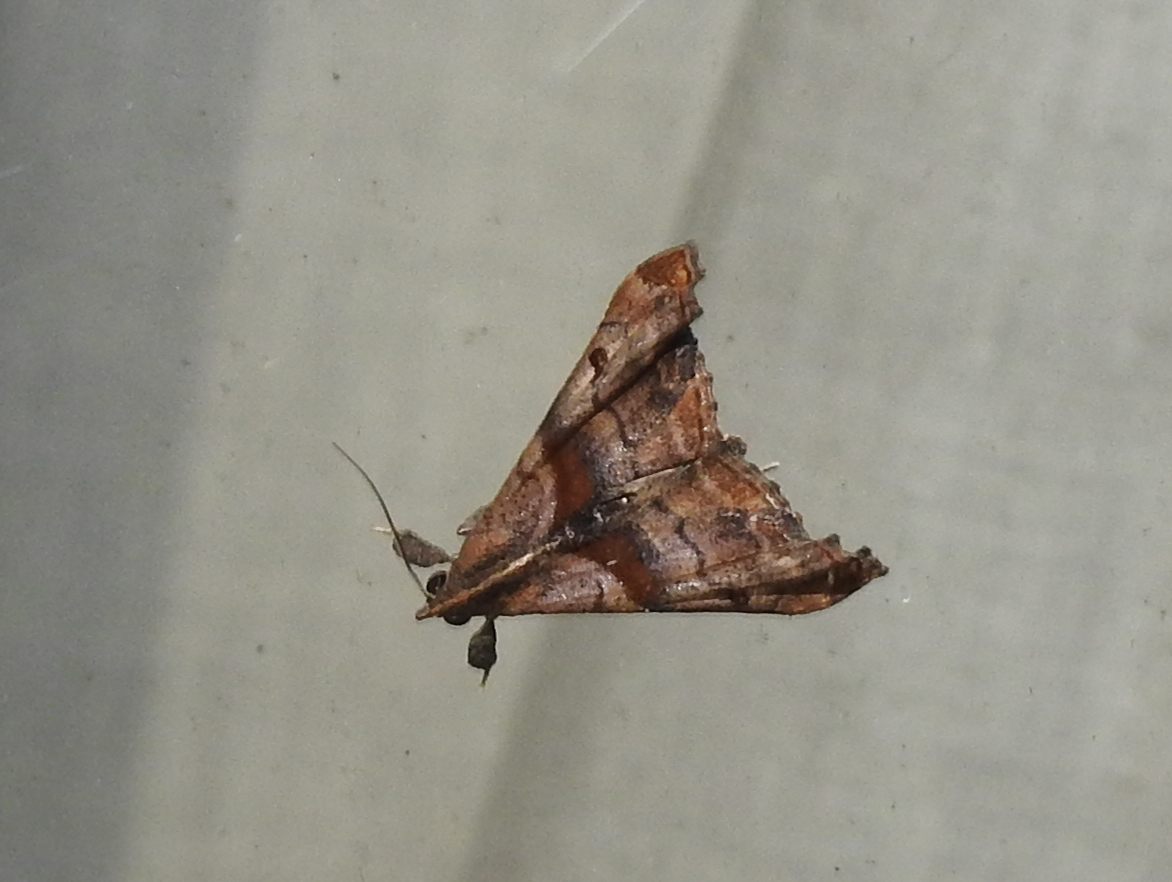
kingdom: Animalia
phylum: Arthropoda
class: Insecta
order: Lepidoptera
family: Erebidae
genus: Palthis
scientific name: Palthis angulalis
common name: Dark-spotted palthis moth
